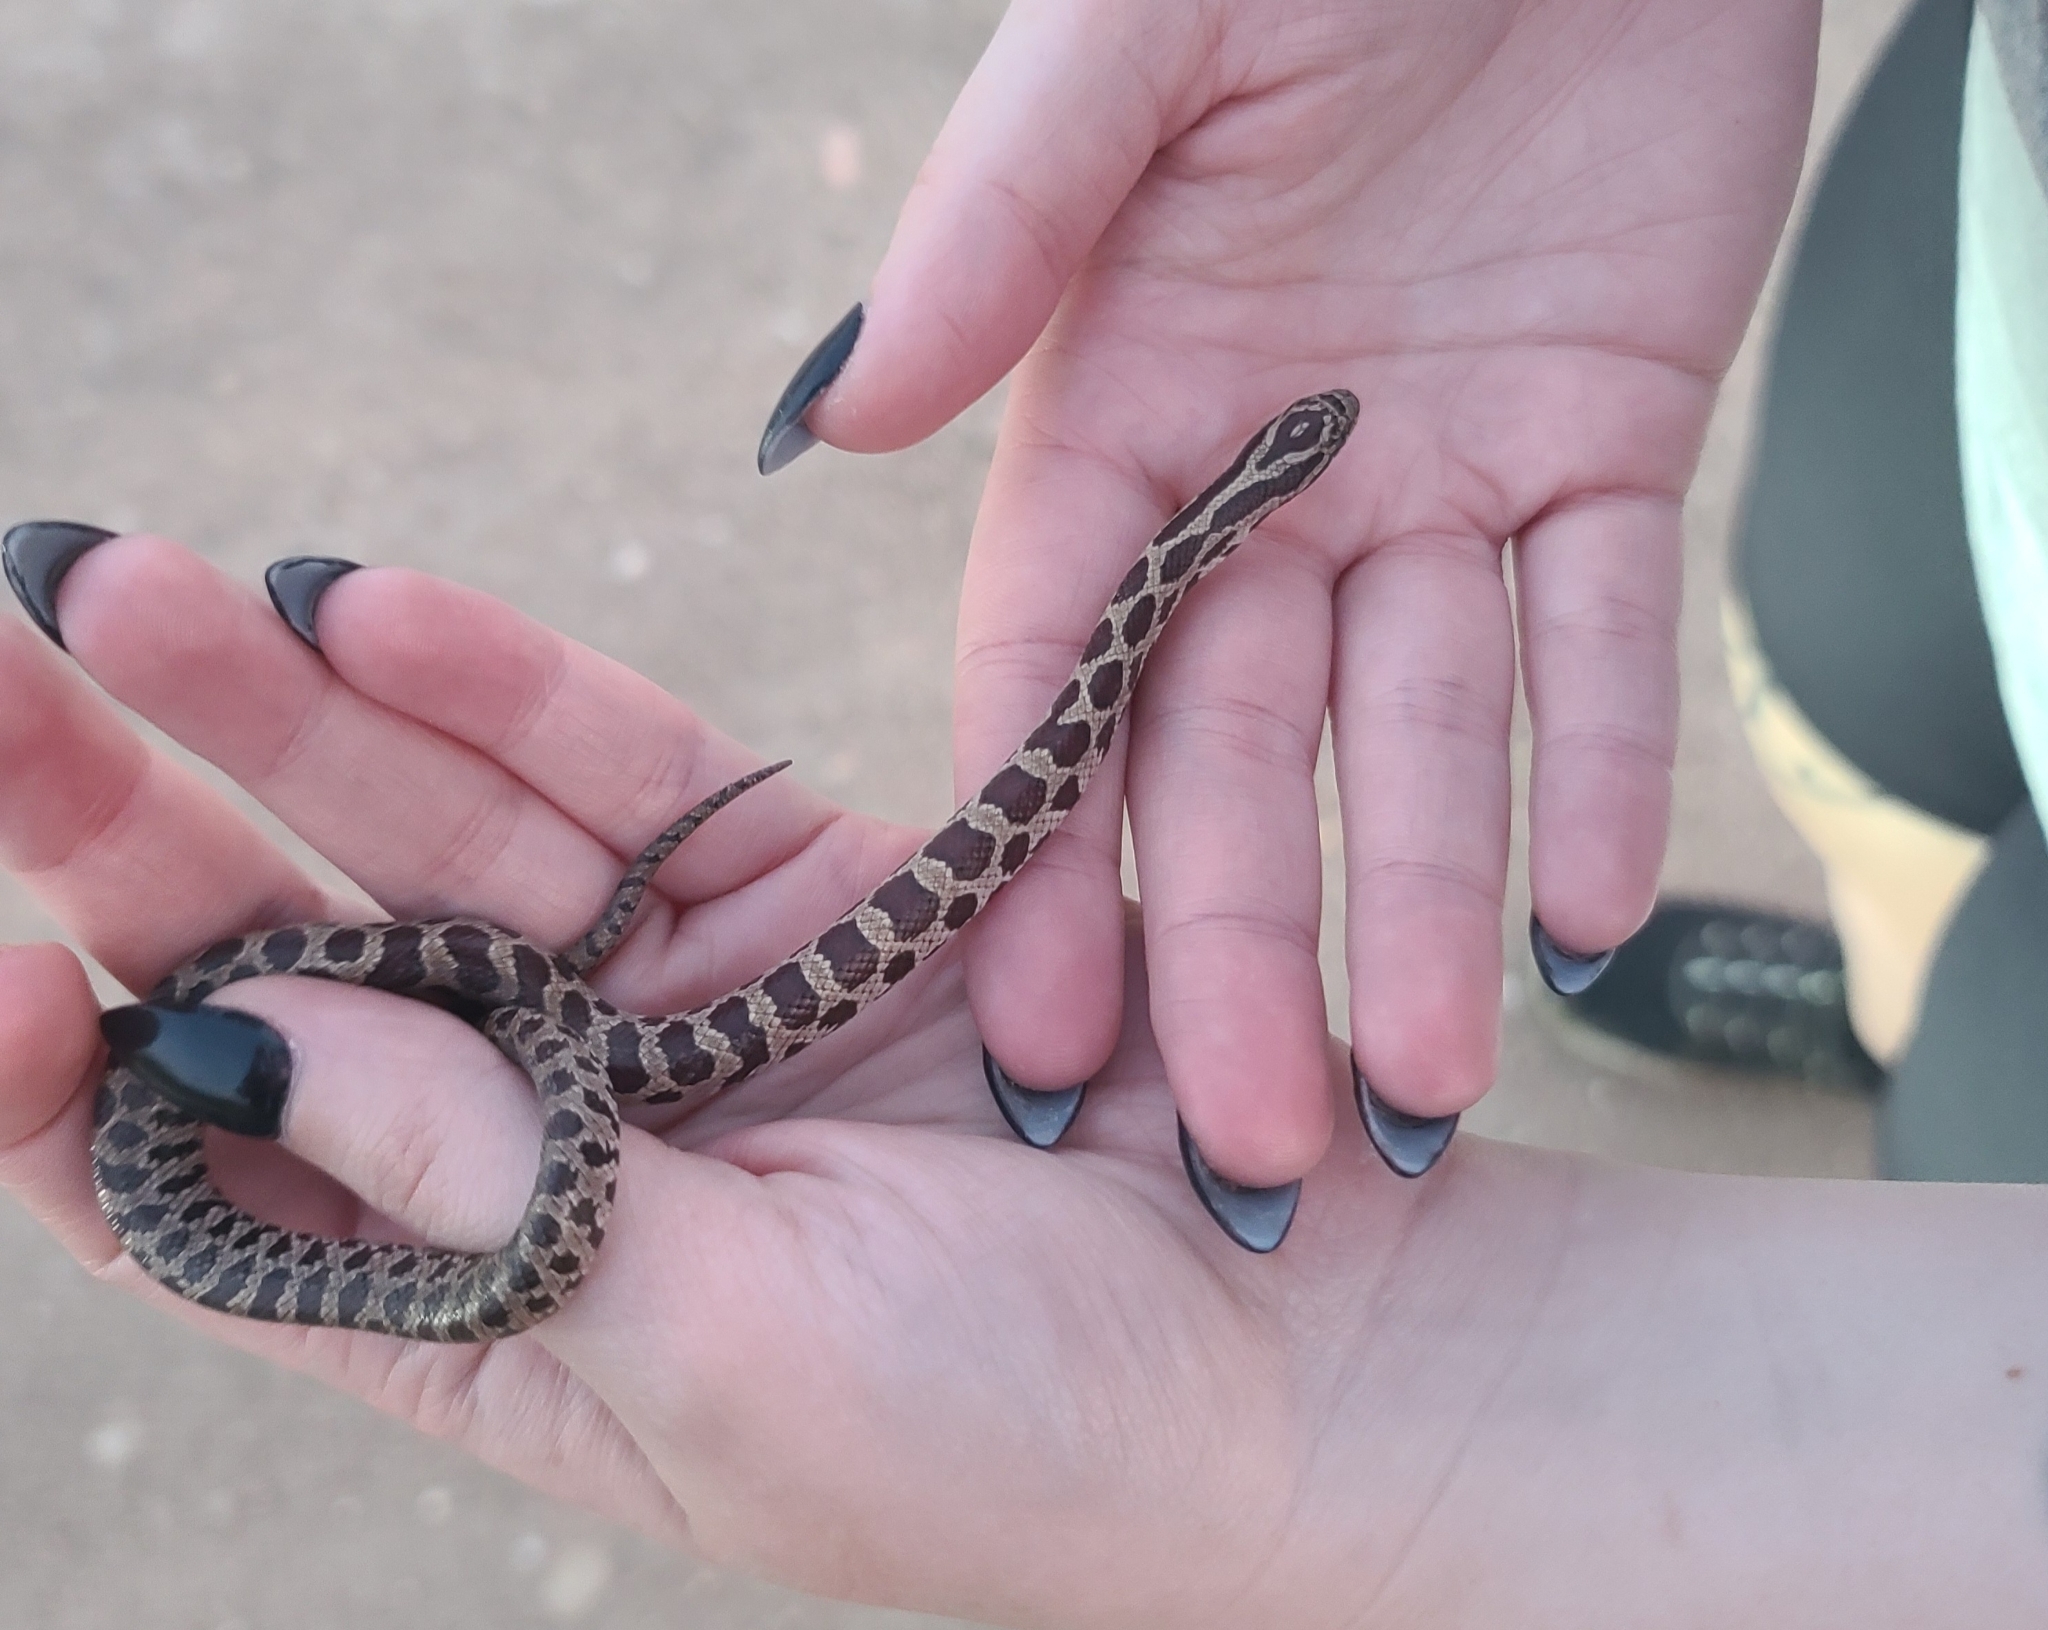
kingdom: Animalia
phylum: Chordata
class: Squamata
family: Colubridae
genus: Lampropeltis
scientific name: Lampropeltis calligaster
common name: Prairie kingsnake
